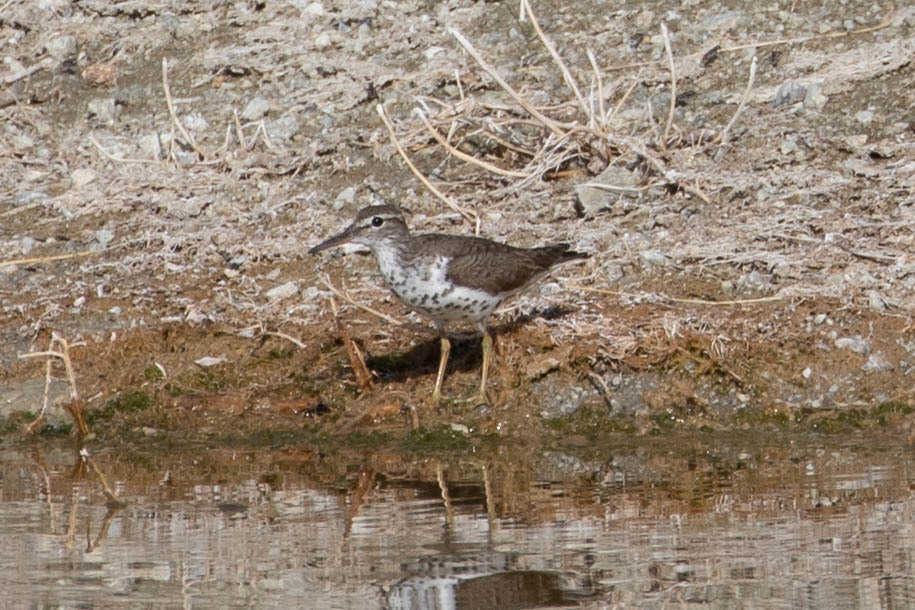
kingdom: Animalia
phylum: Chordata
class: Aves
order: Charadriiformes
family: Scolopacidae
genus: Actitis
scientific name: Actitis macularius
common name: Spotted sandpiper
